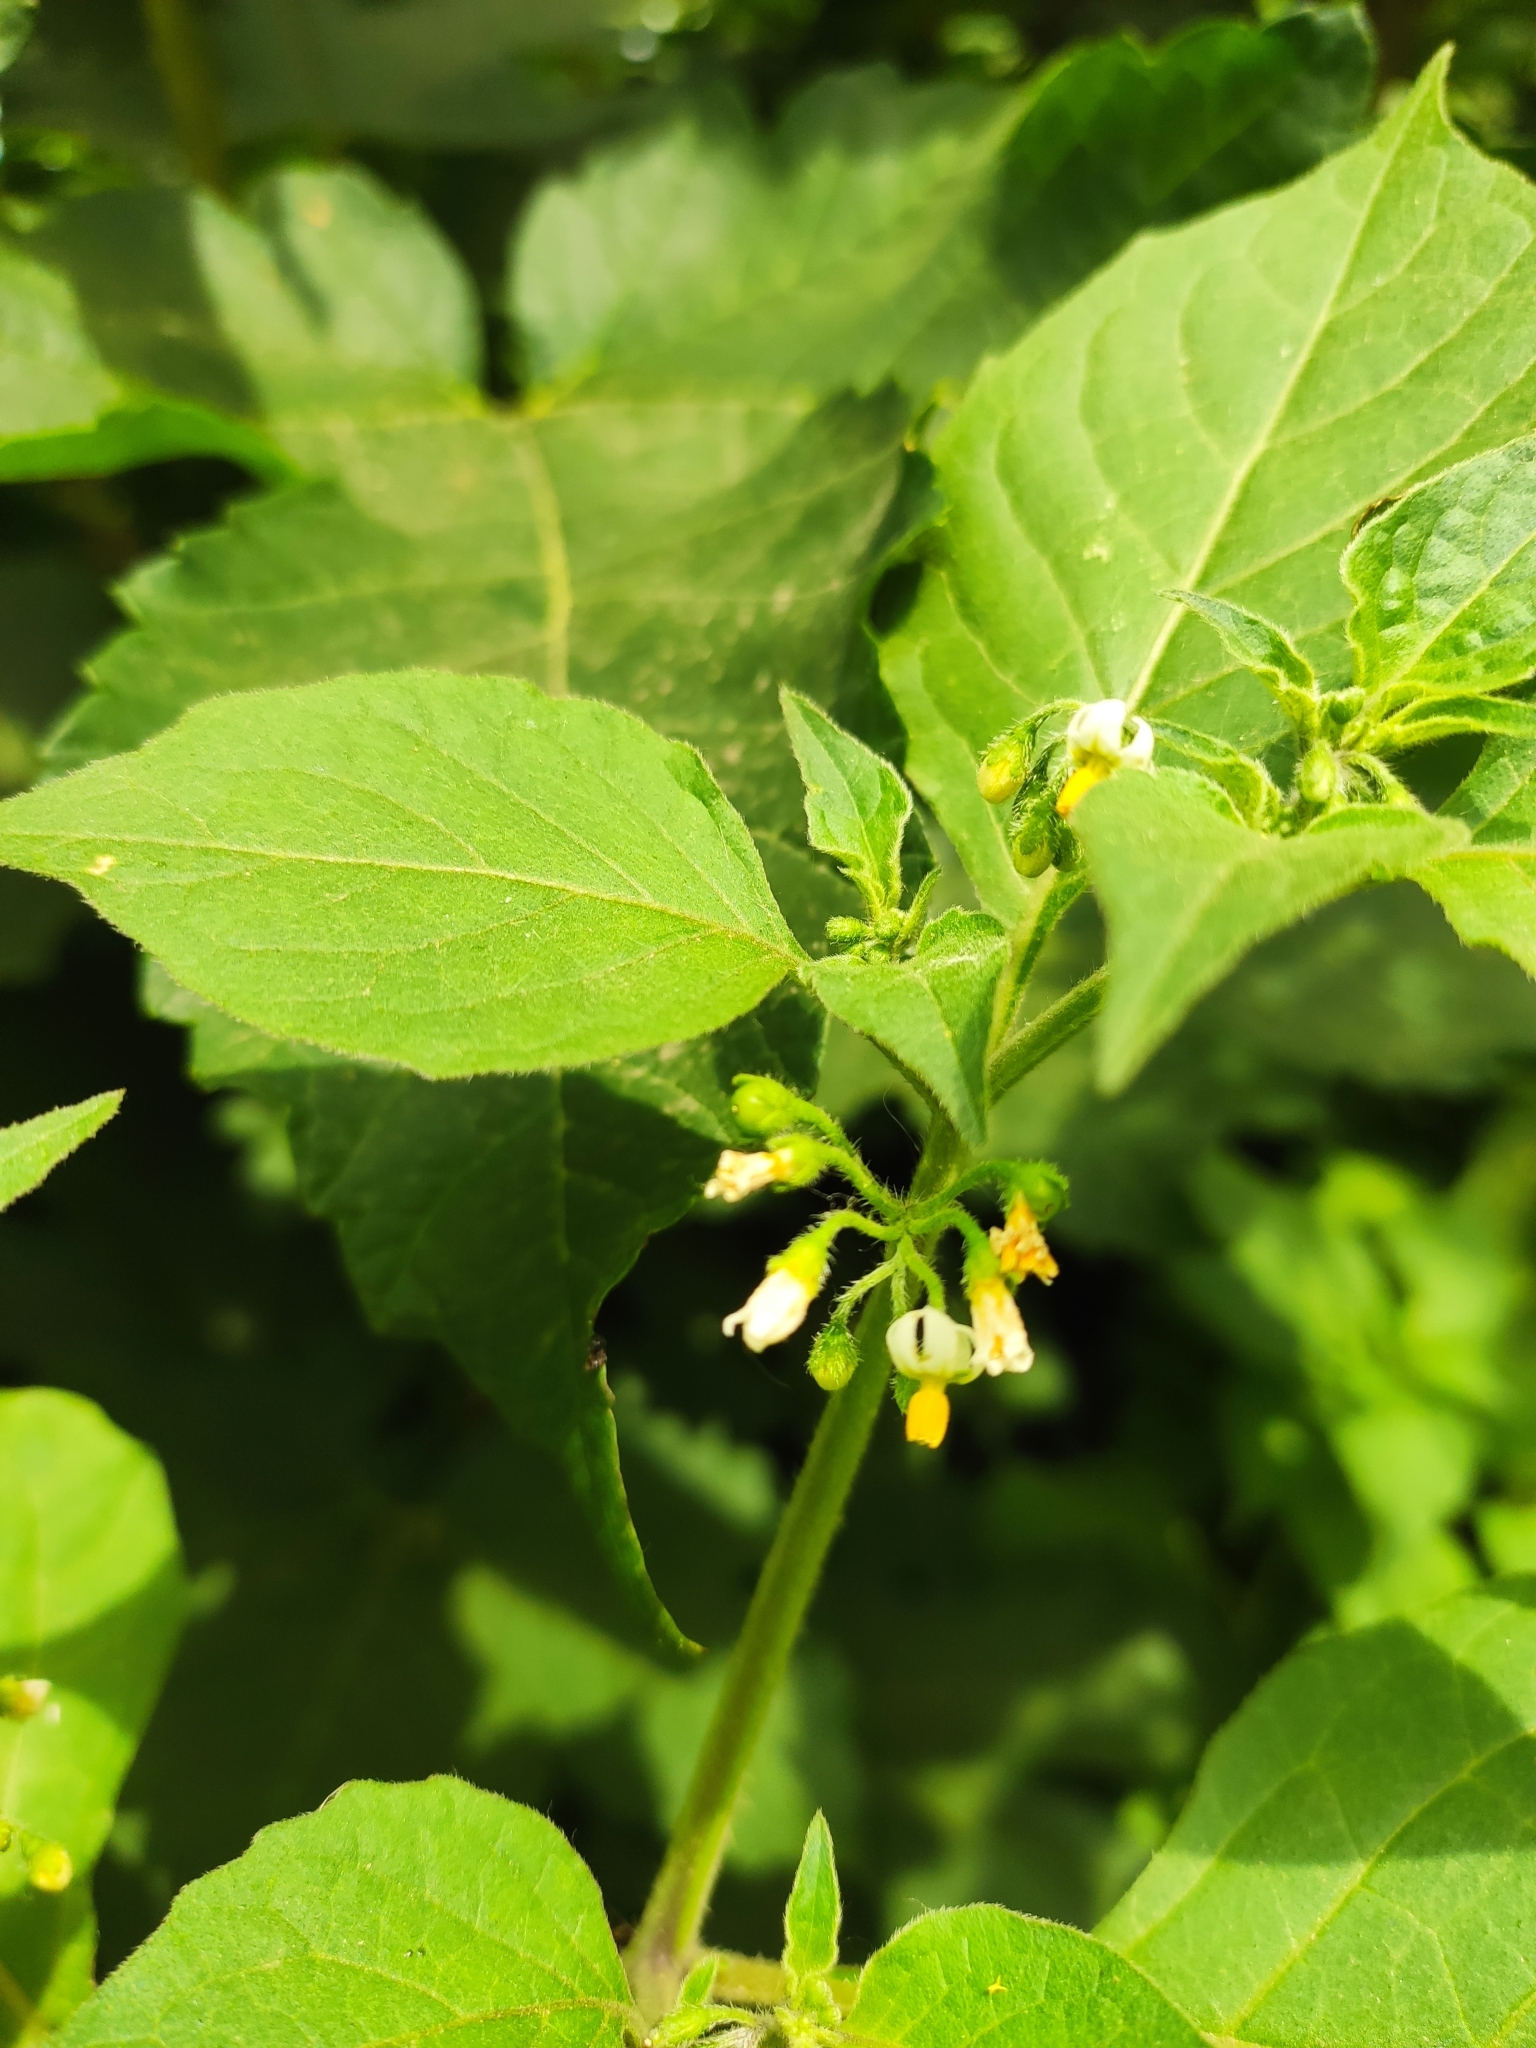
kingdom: Plantae
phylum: Tracheophyta
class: Magnoliopsida
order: Solanales
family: Solanaceae
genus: Solanum
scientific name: Solanum nigrum
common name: Black nightshade
